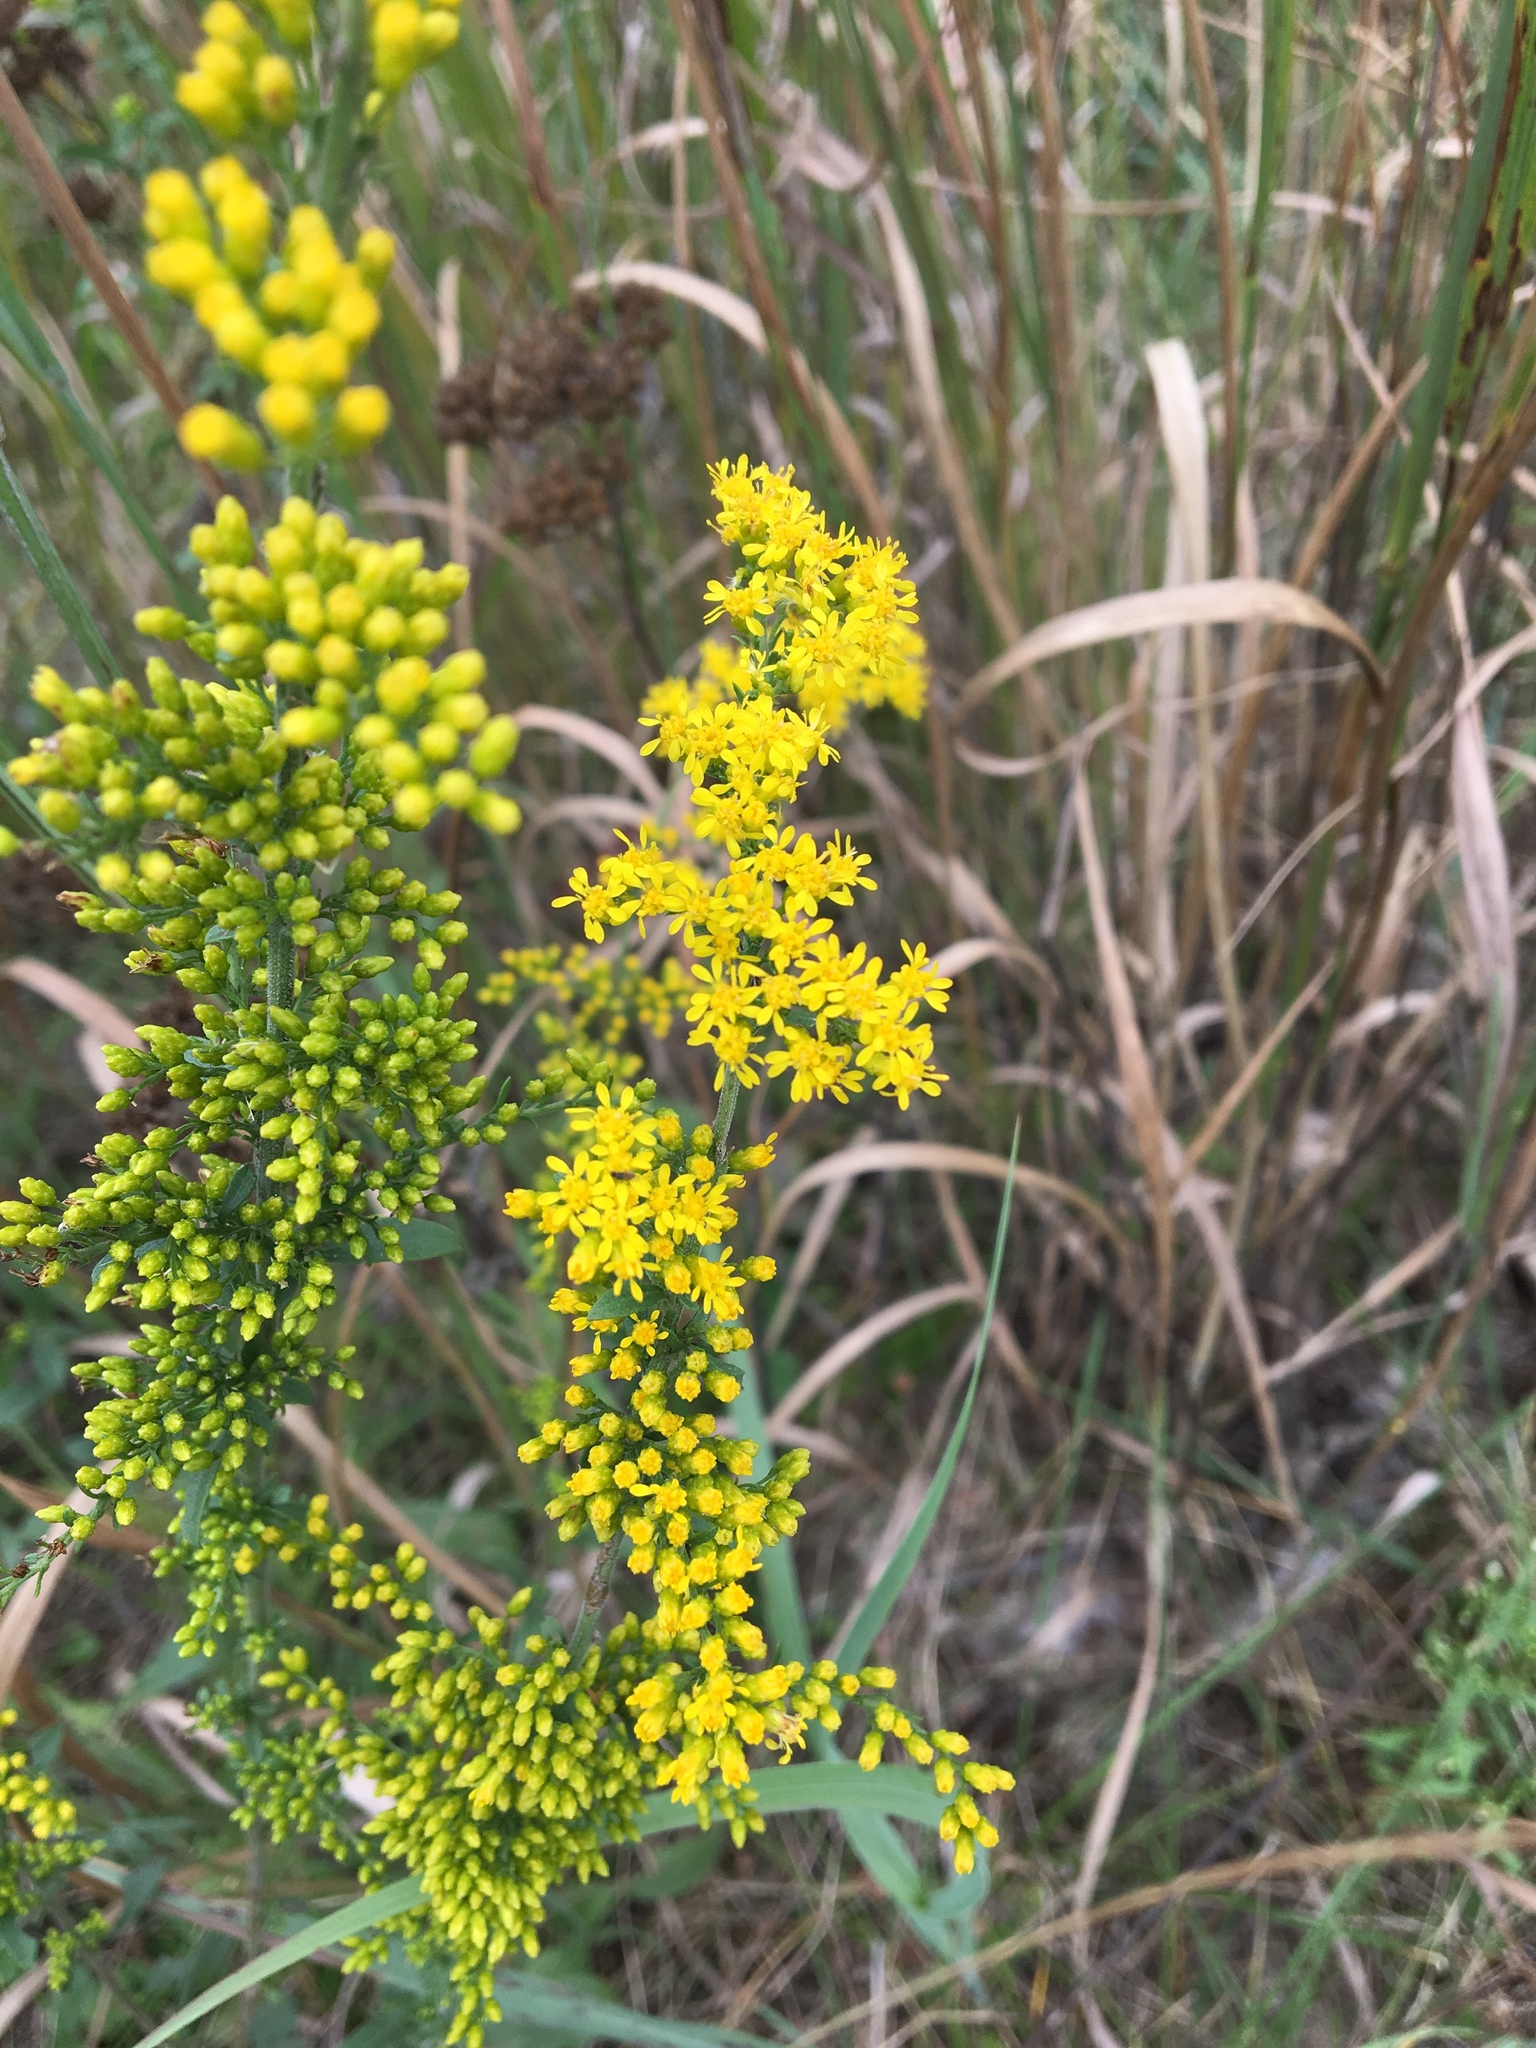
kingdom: Plantae
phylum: Tracheophyta
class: Magnoliopsida
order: Asterales
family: Asteraceae
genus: Solidago
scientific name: Solidago canadensis
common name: Canada goldenrod
